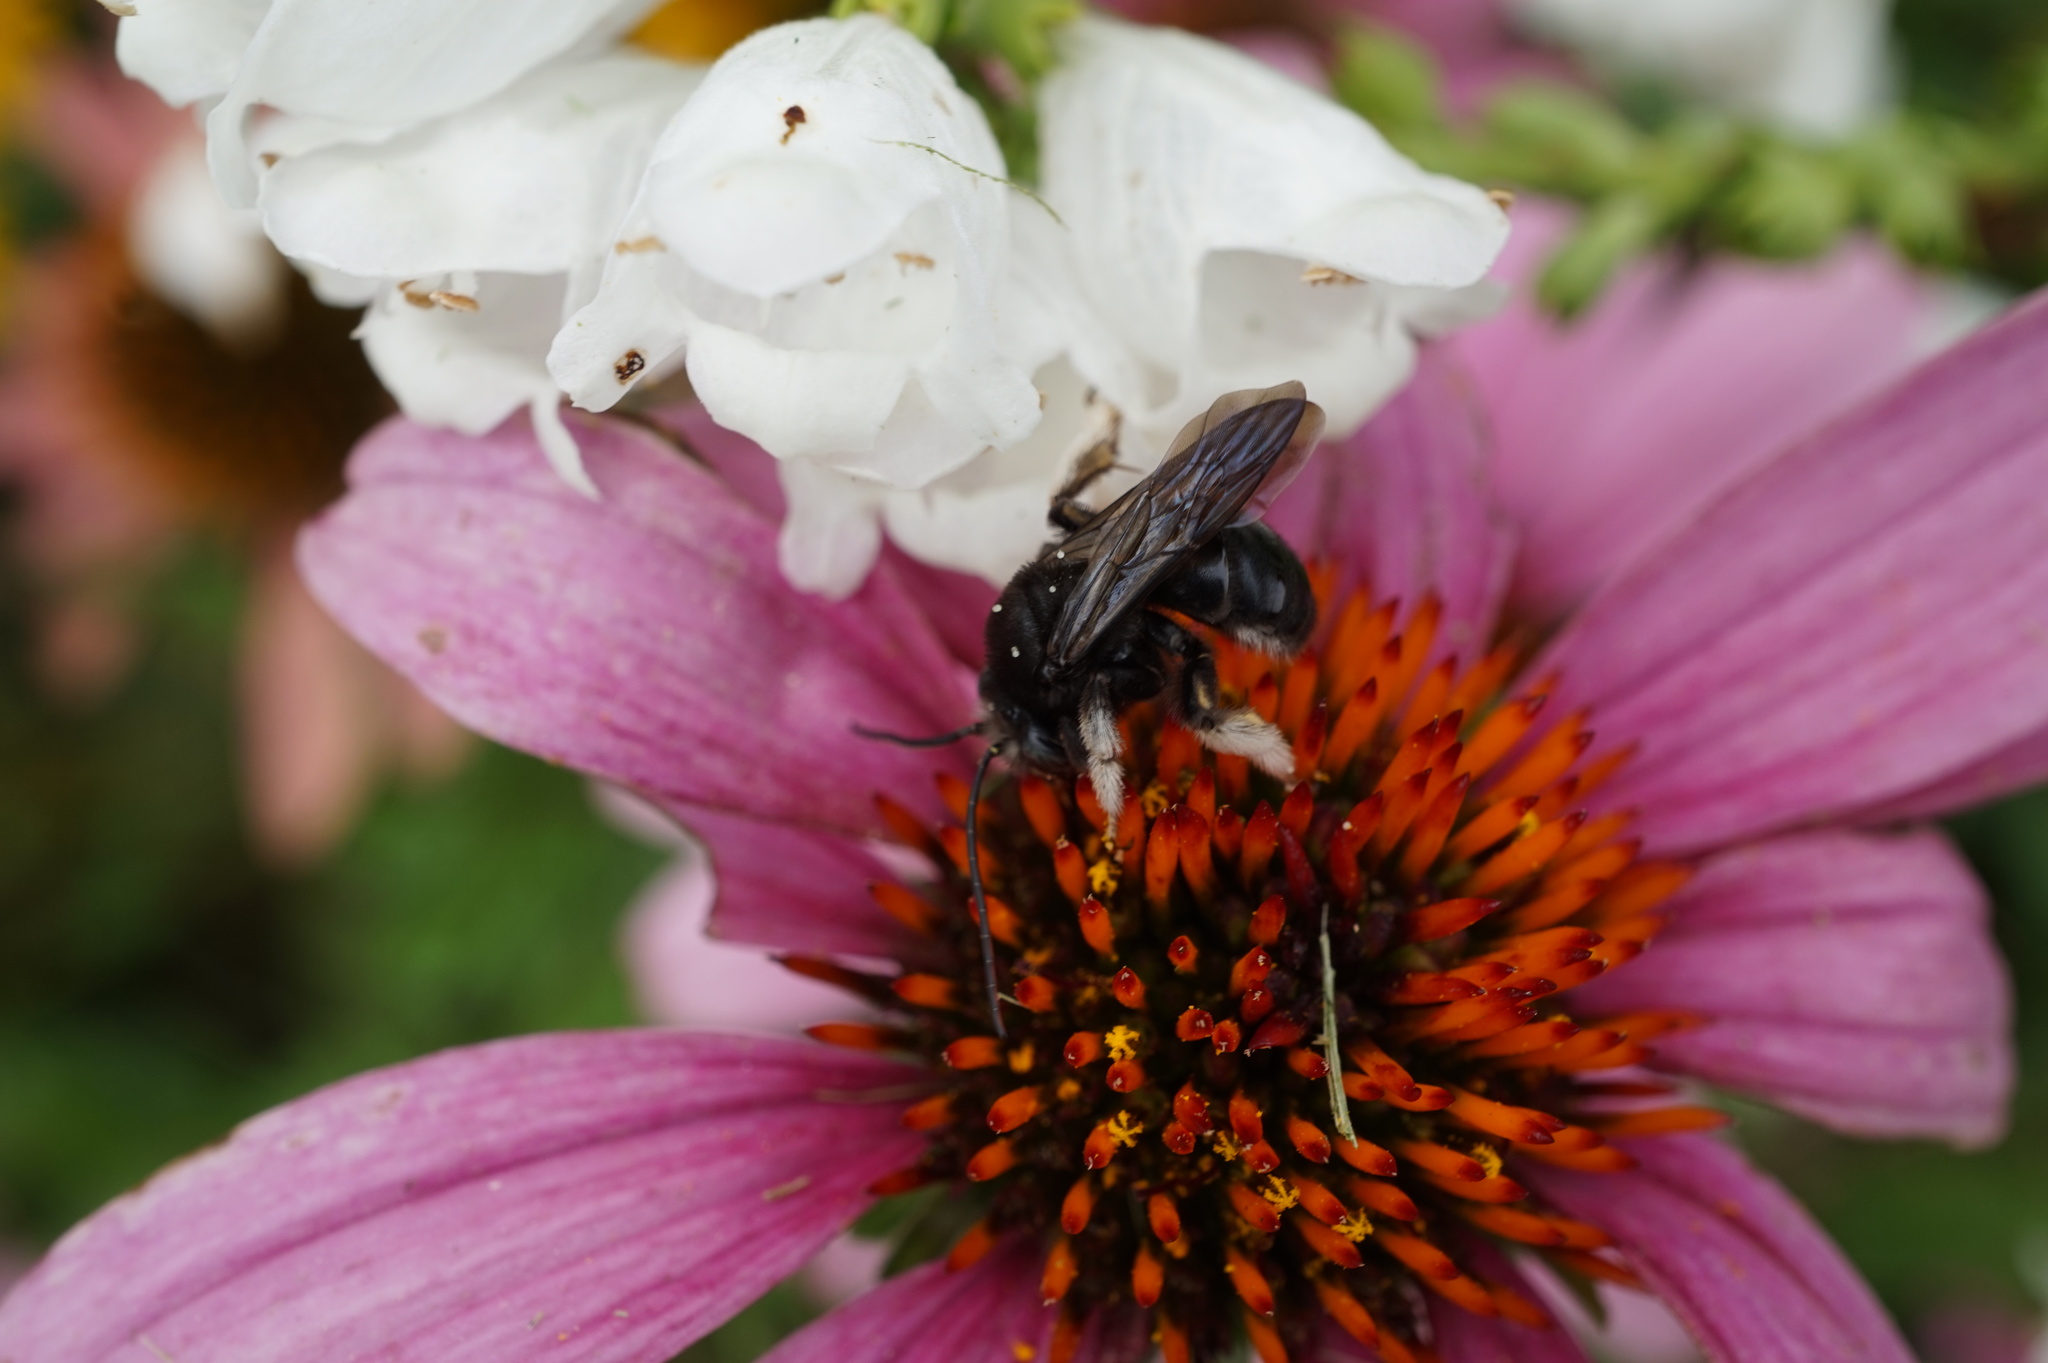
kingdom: Animalia
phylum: Arthropoda
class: Insecta
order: Hymenoptera
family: Apidae
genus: Melissodes
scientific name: Melissodes bimaculatus
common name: Two-spotted long-horned bee
